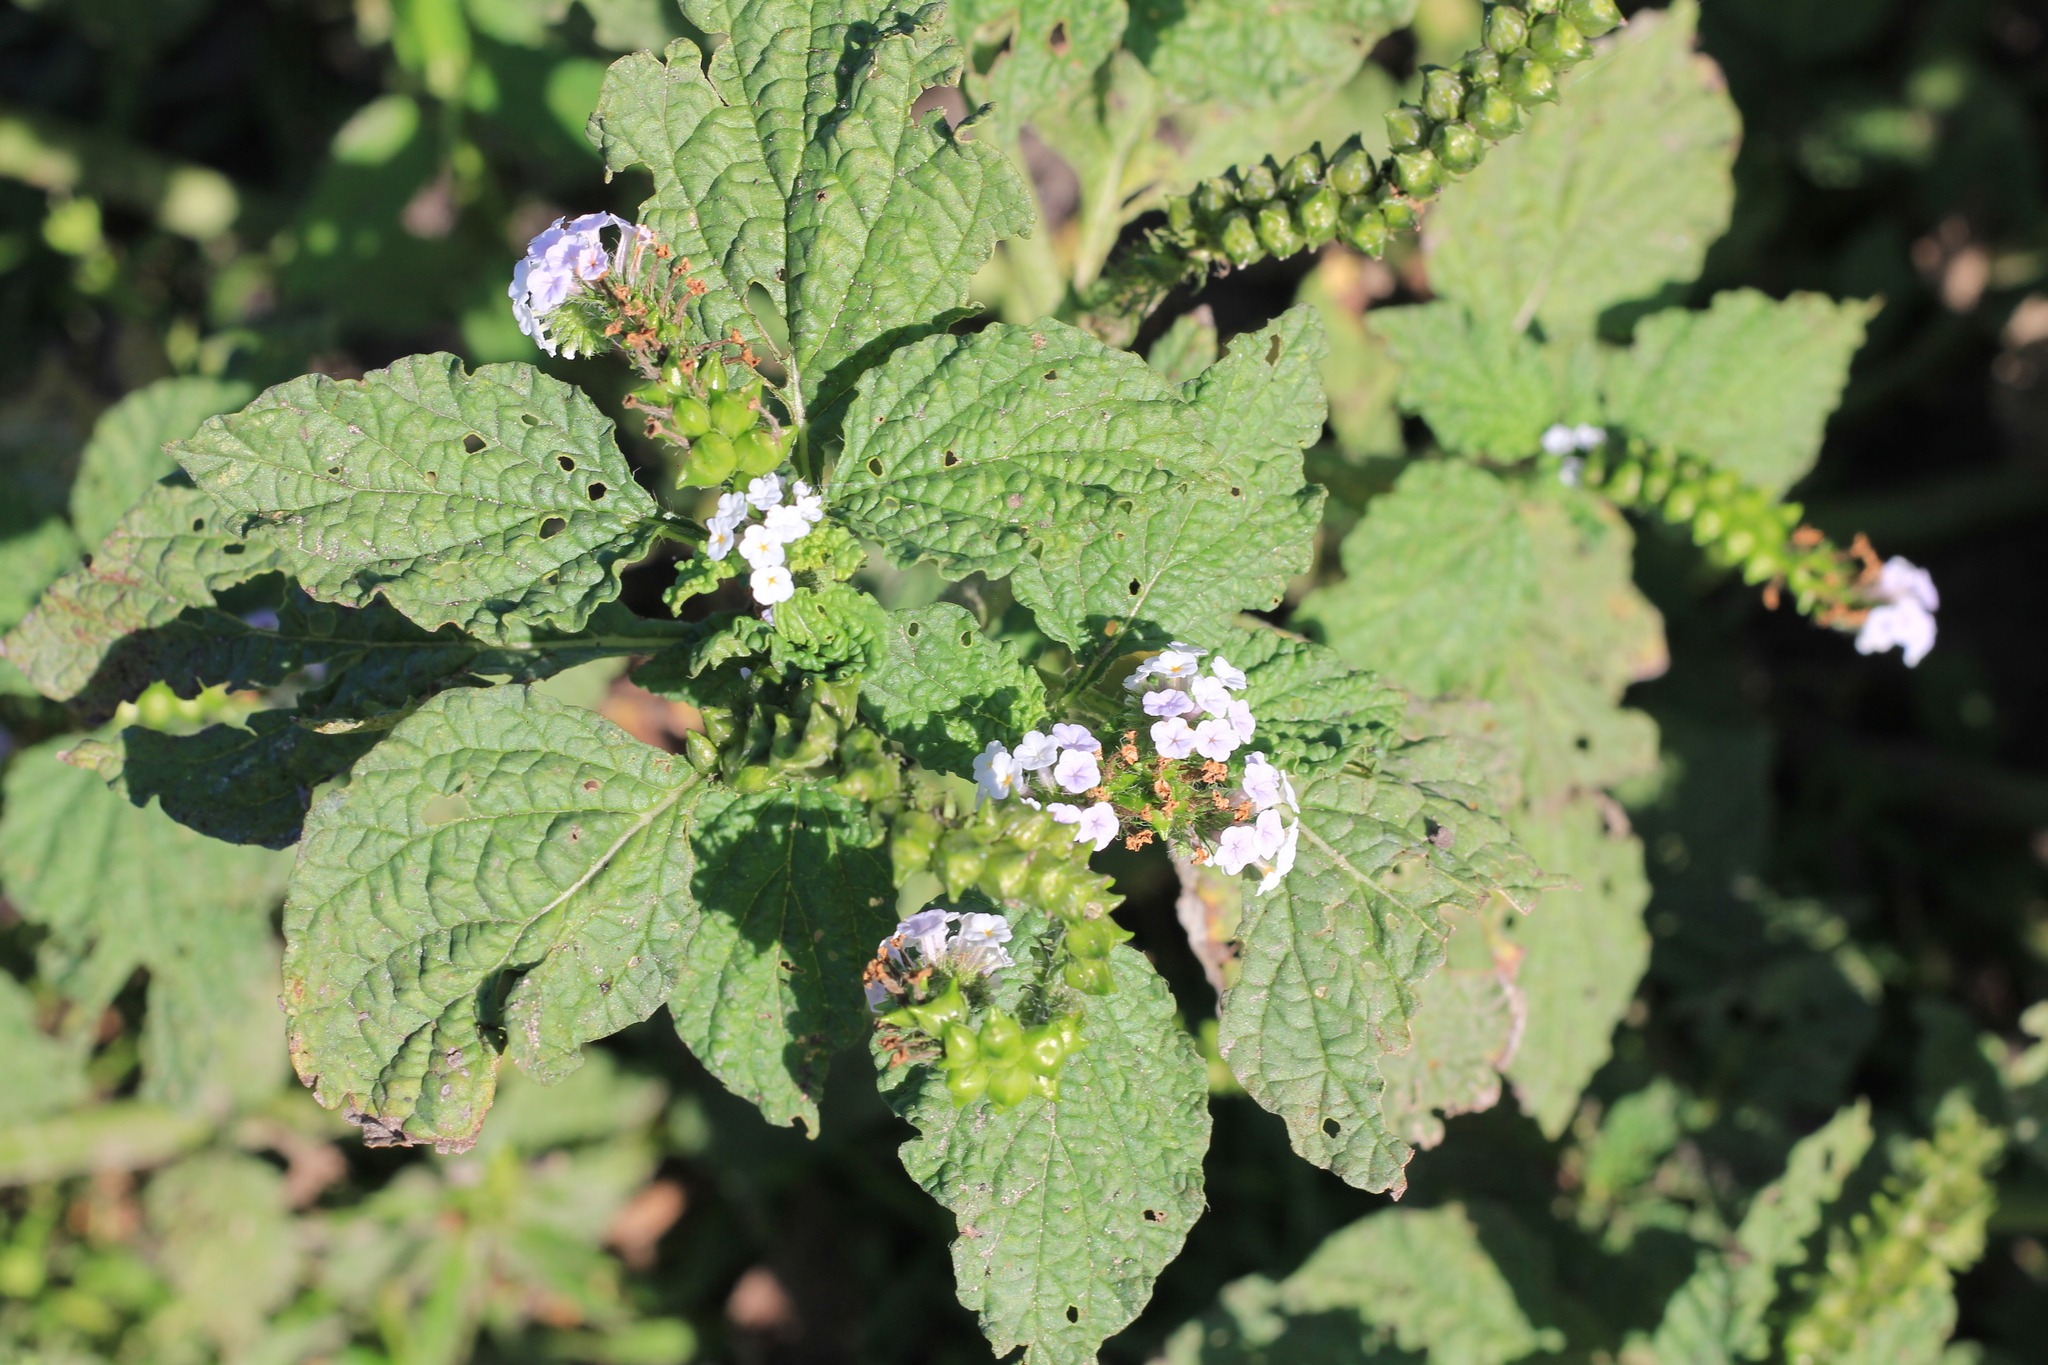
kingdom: Plantae
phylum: Tracheophyta
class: Magnoliopsida
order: Boraginales
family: Heliotropiaceae
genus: Heliotropium
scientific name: Heliotropium elongatum
